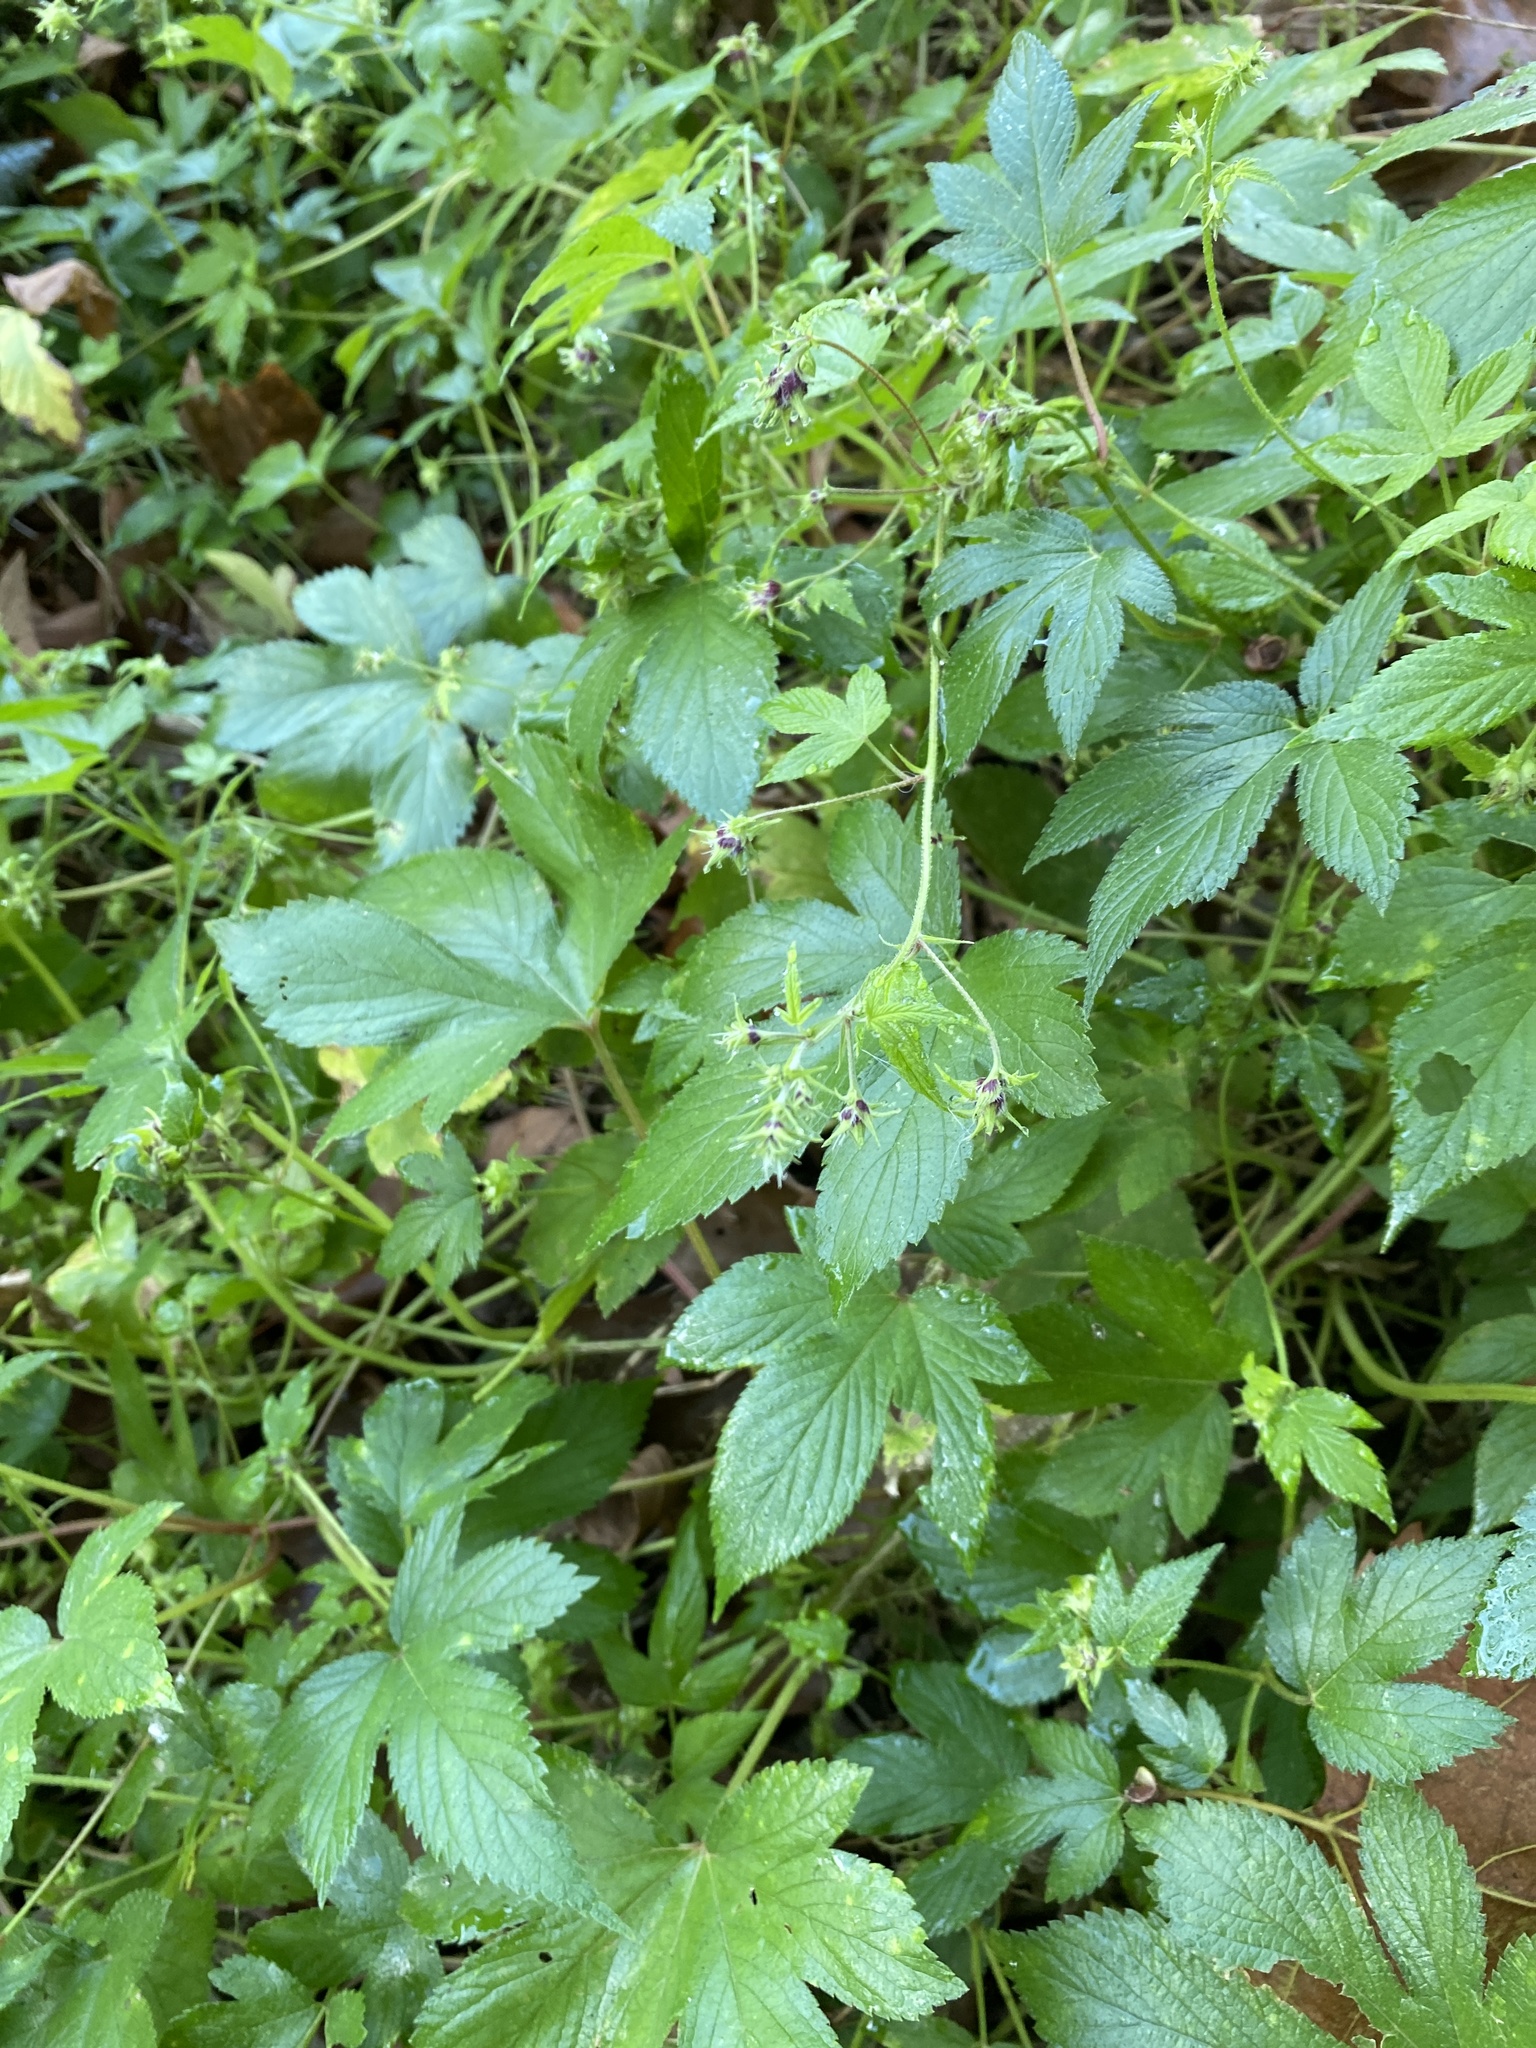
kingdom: Plantae
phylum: Tracheophyta
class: Magnoliopsida
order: Rosales
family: Cannabaceae
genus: Humulus
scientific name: Humulus scandens
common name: Japanese hop
